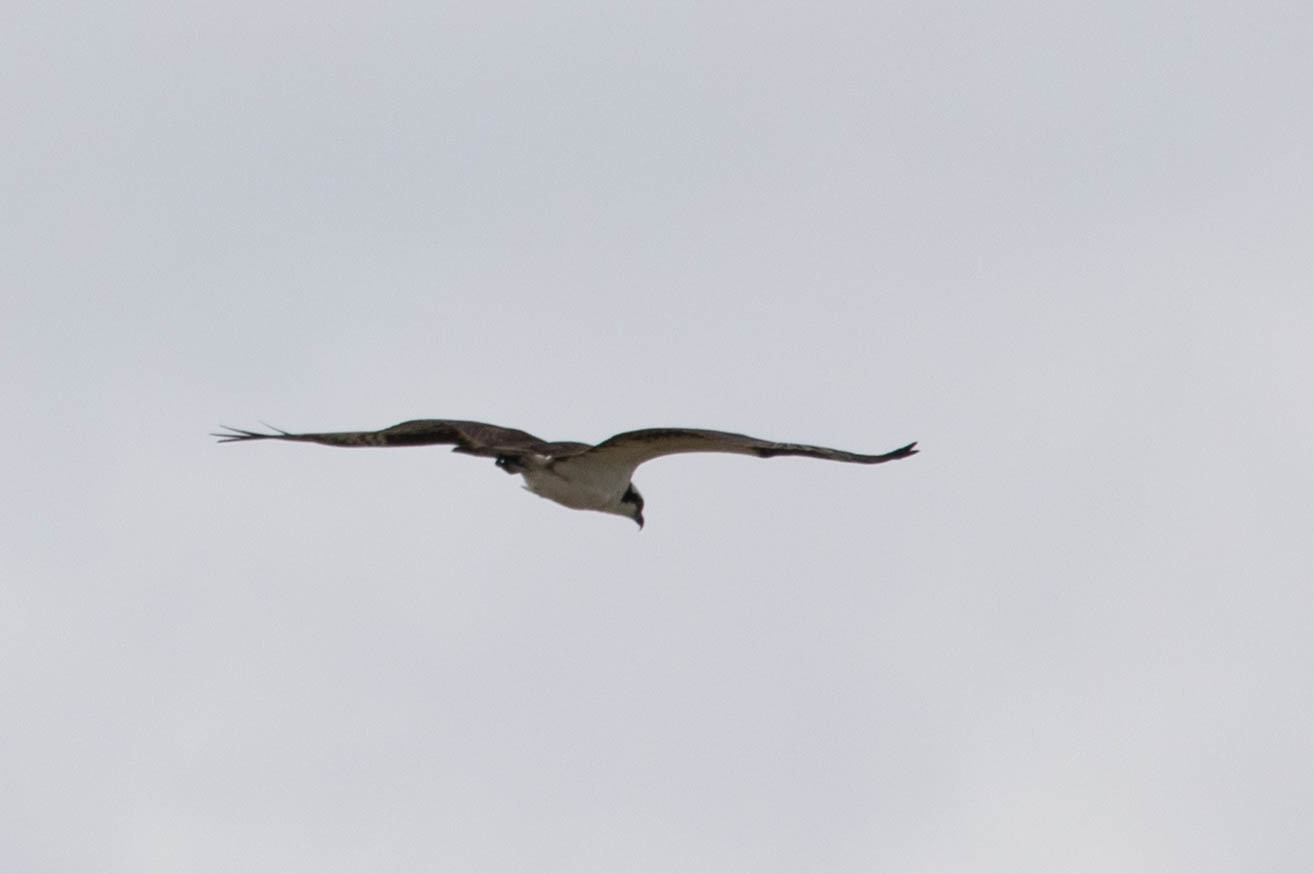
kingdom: Animalia
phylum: Chordata
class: Aves
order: Accipitriformes
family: Pandionidae
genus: Pandion
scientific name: Pandion haliaetus
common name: Osprey
